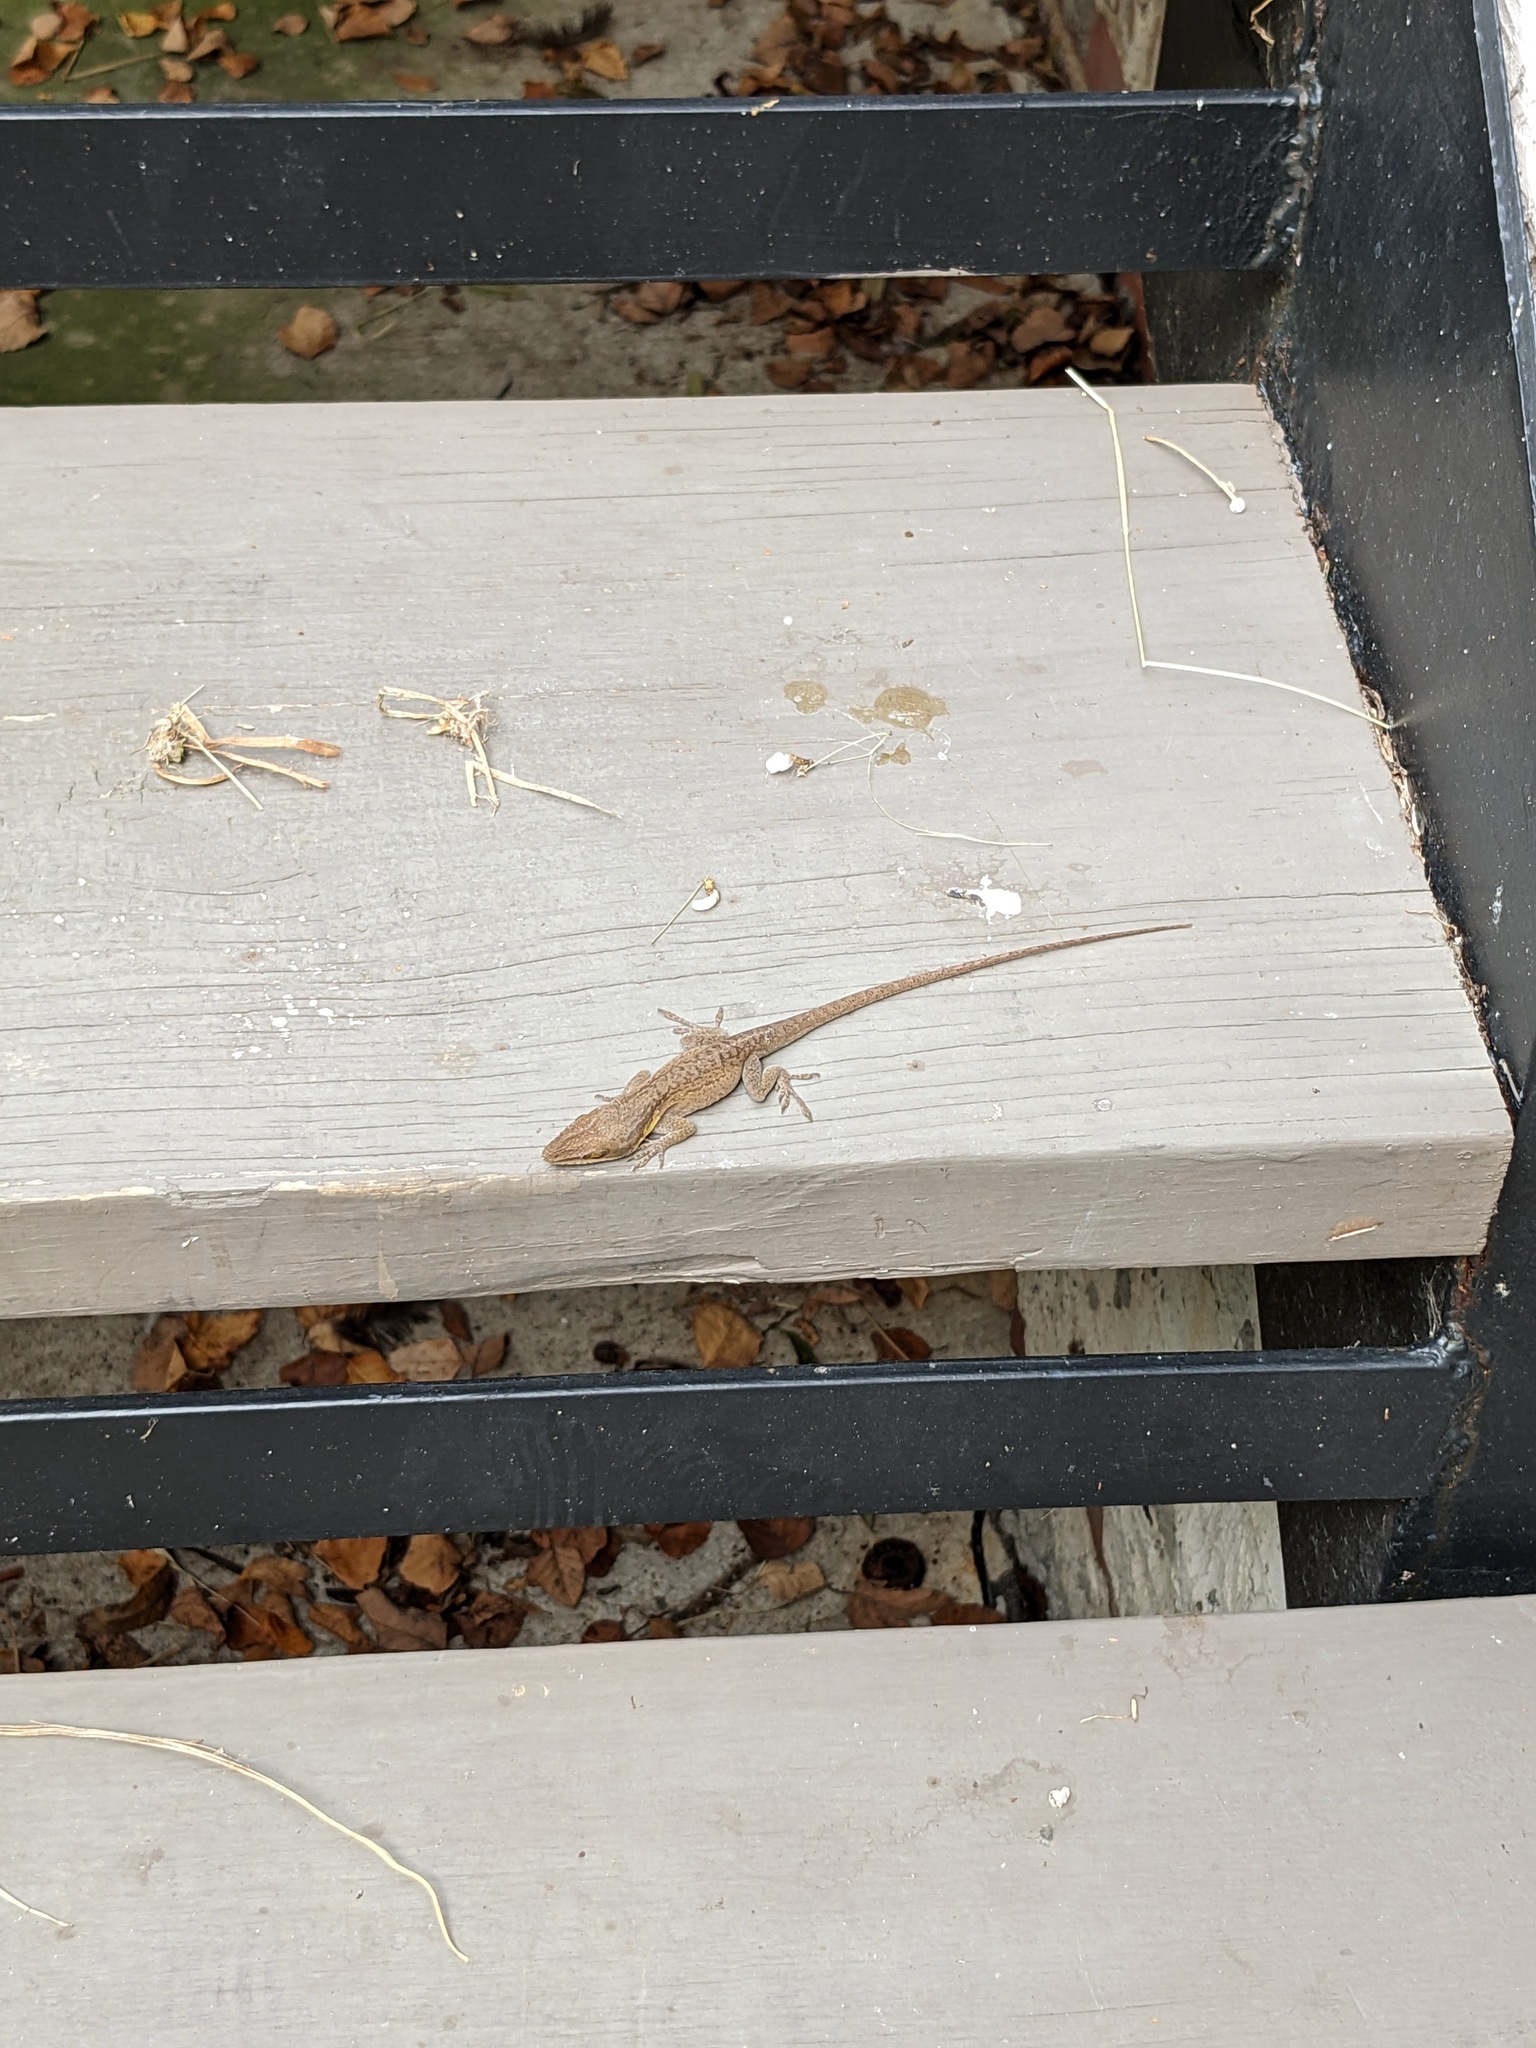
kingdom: Animalia
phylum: Chordata
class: Squamata
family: Dactyloidae
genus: Anolis
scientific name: Anolis carolinensis
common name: Green anole
